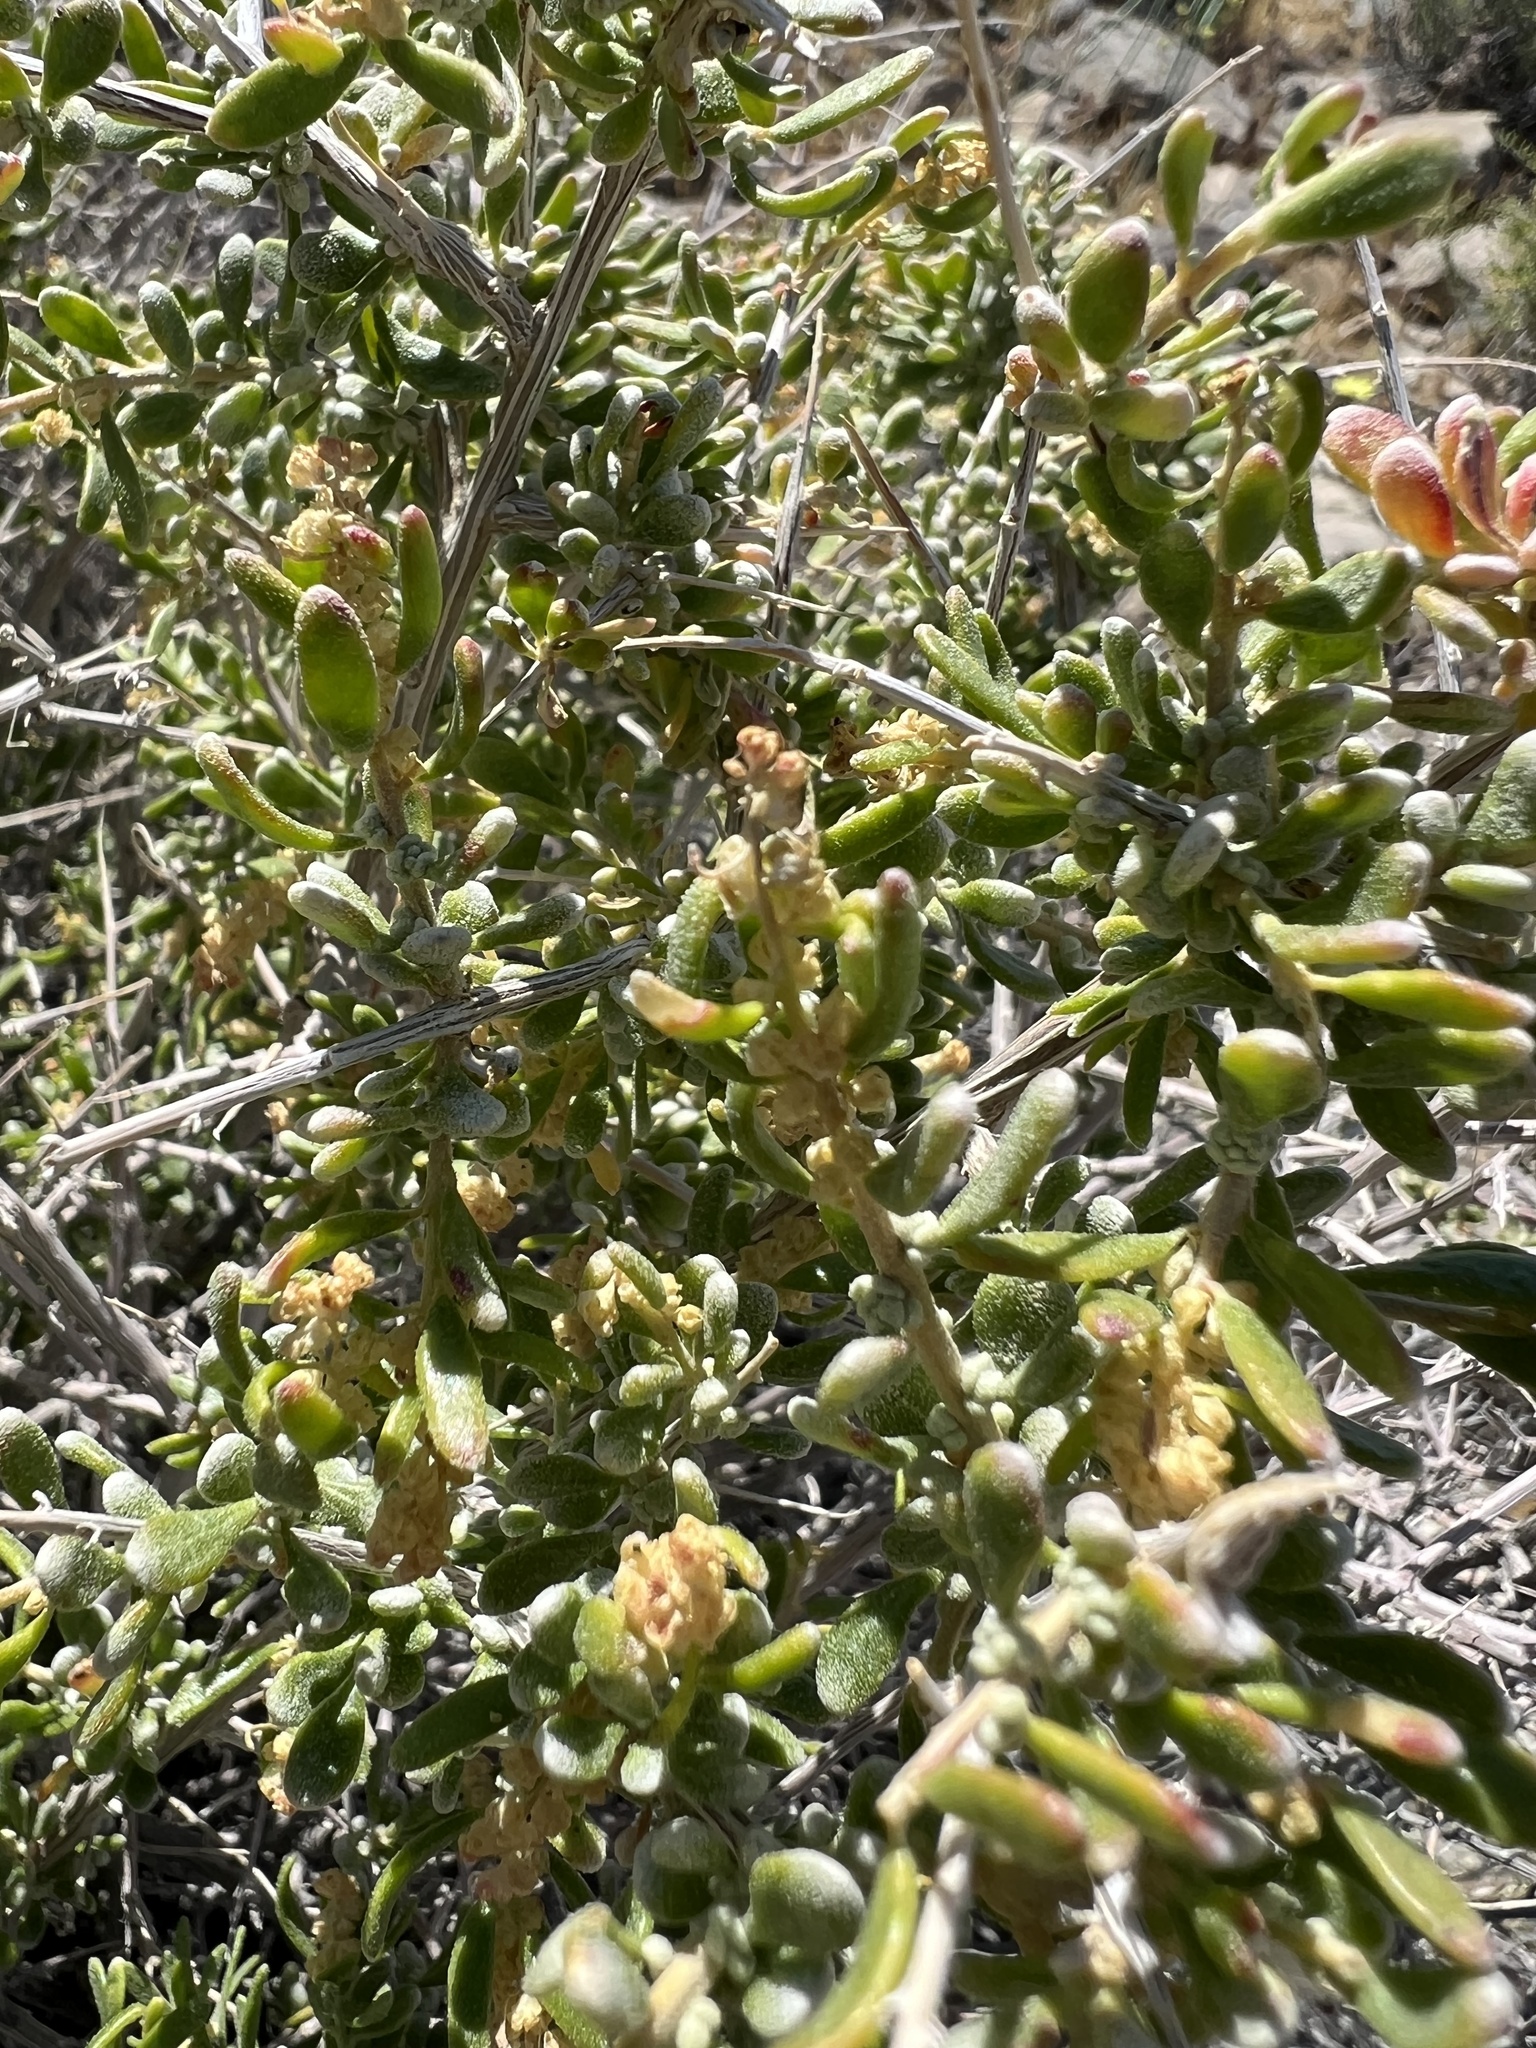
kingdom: Plantae
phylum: Tracheophyta
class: Magnoliopsida
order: Caryophyllales
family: Amaranthaceae
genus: Grayia
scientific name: Grayia spinosa
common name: Spiny hopsage
